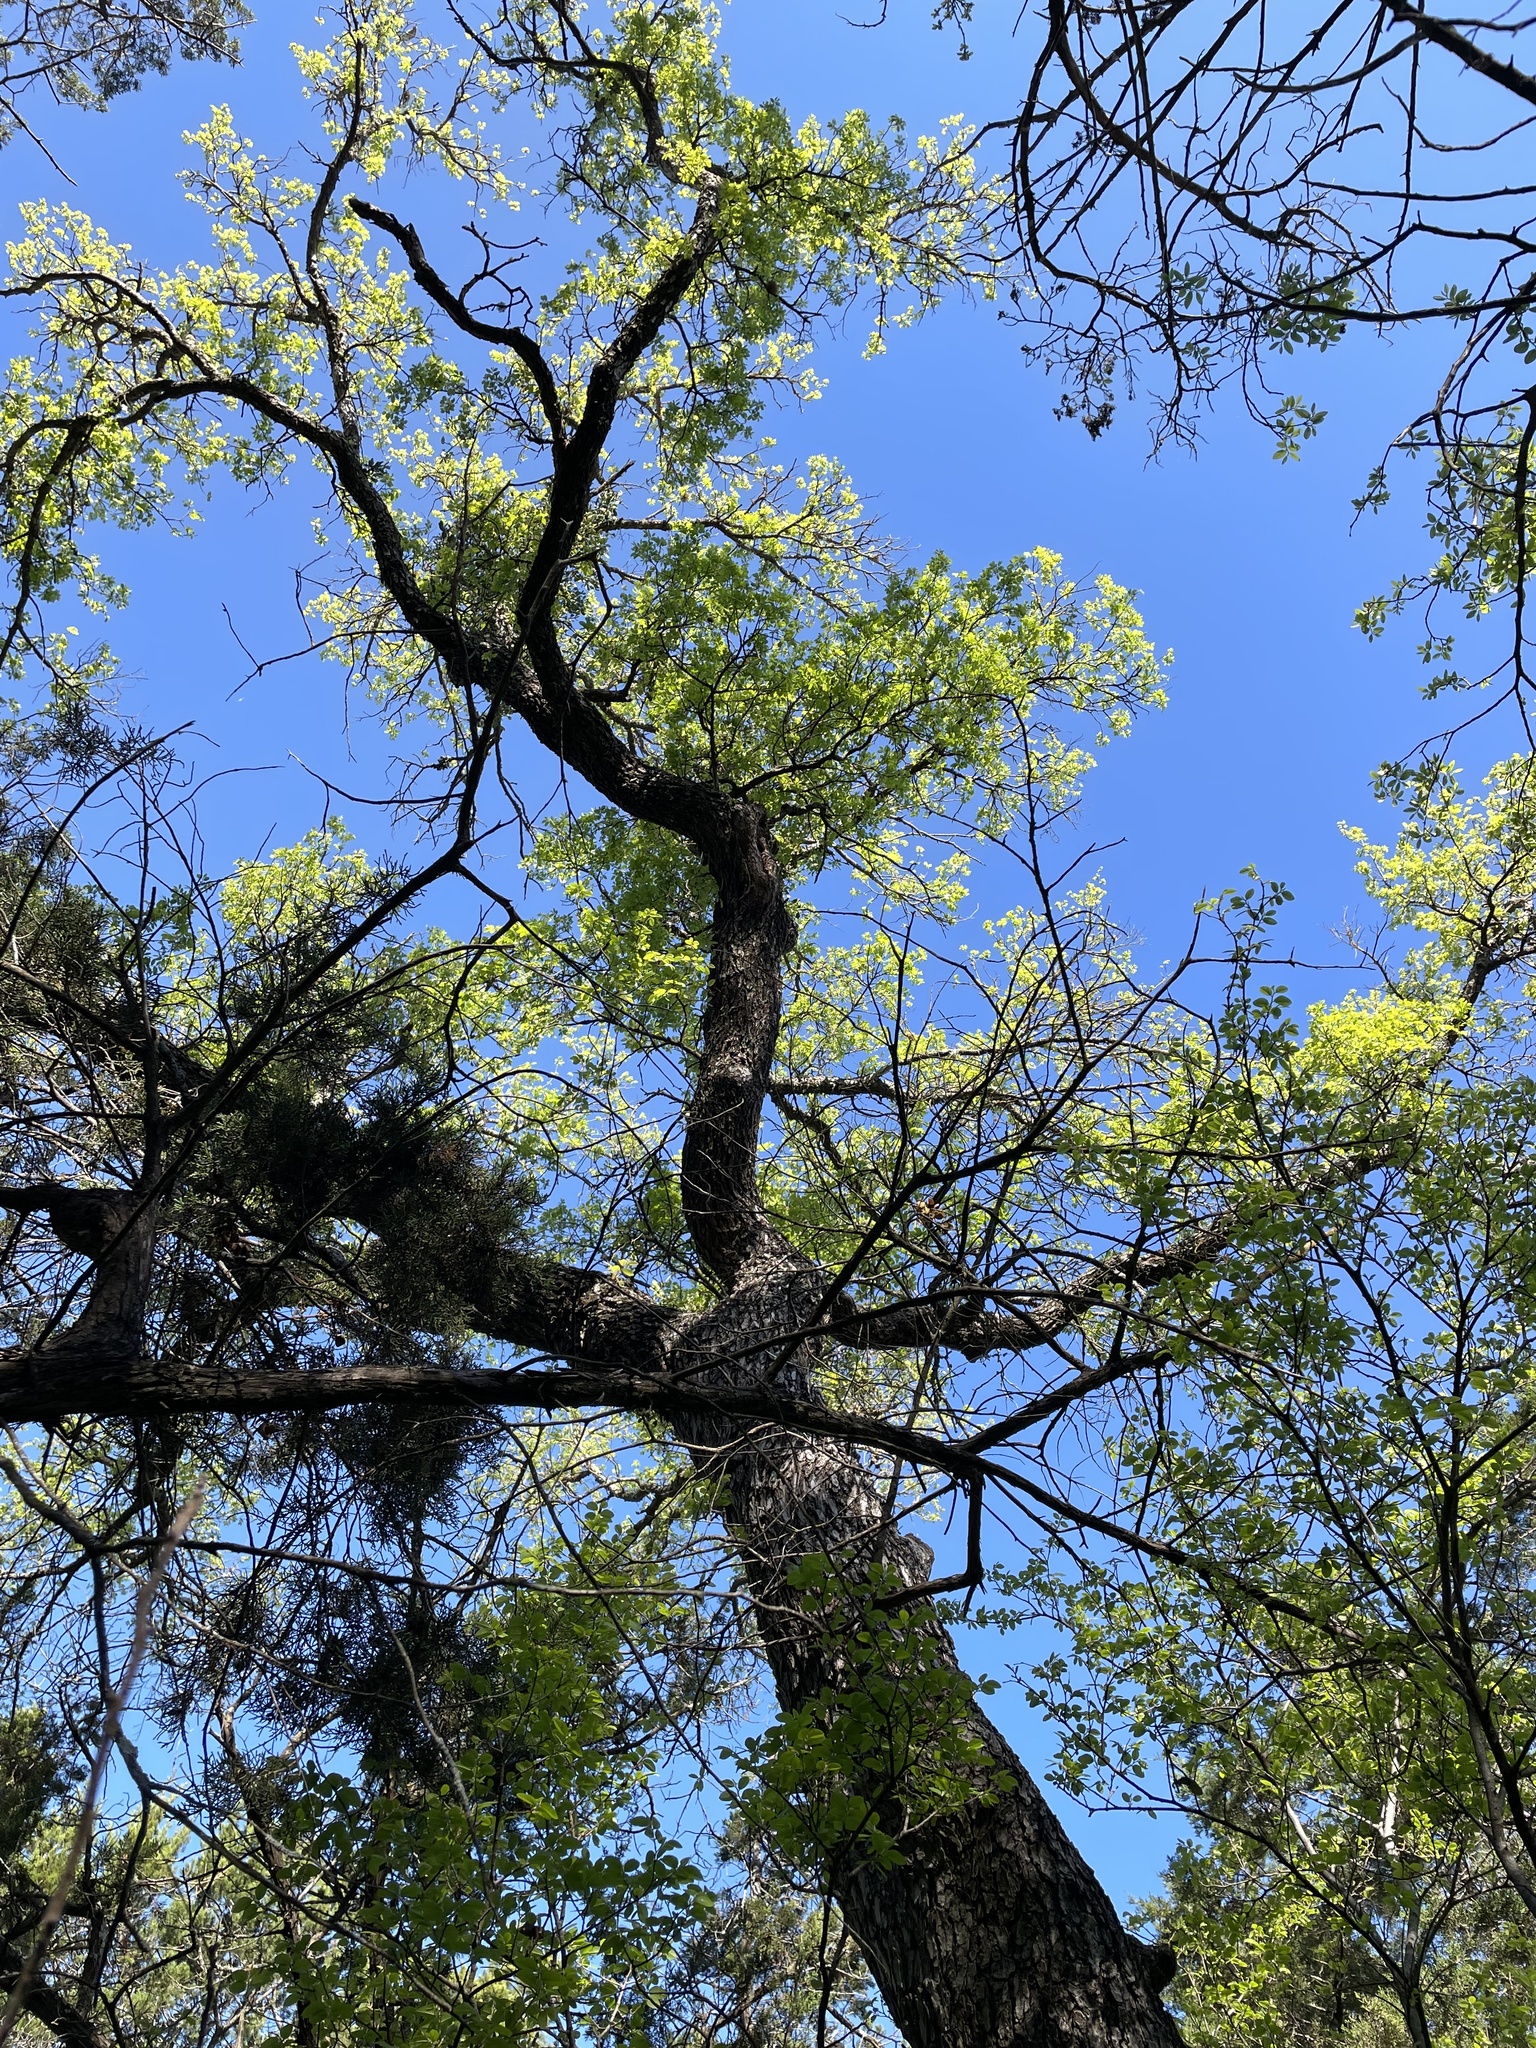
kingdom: Plantae
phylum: Tracheophyta
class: Magnoliopsida
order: Rosales
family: Ulmaceae
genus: Ulmus
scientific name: Ulmus crassifolia
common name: Basket elm
